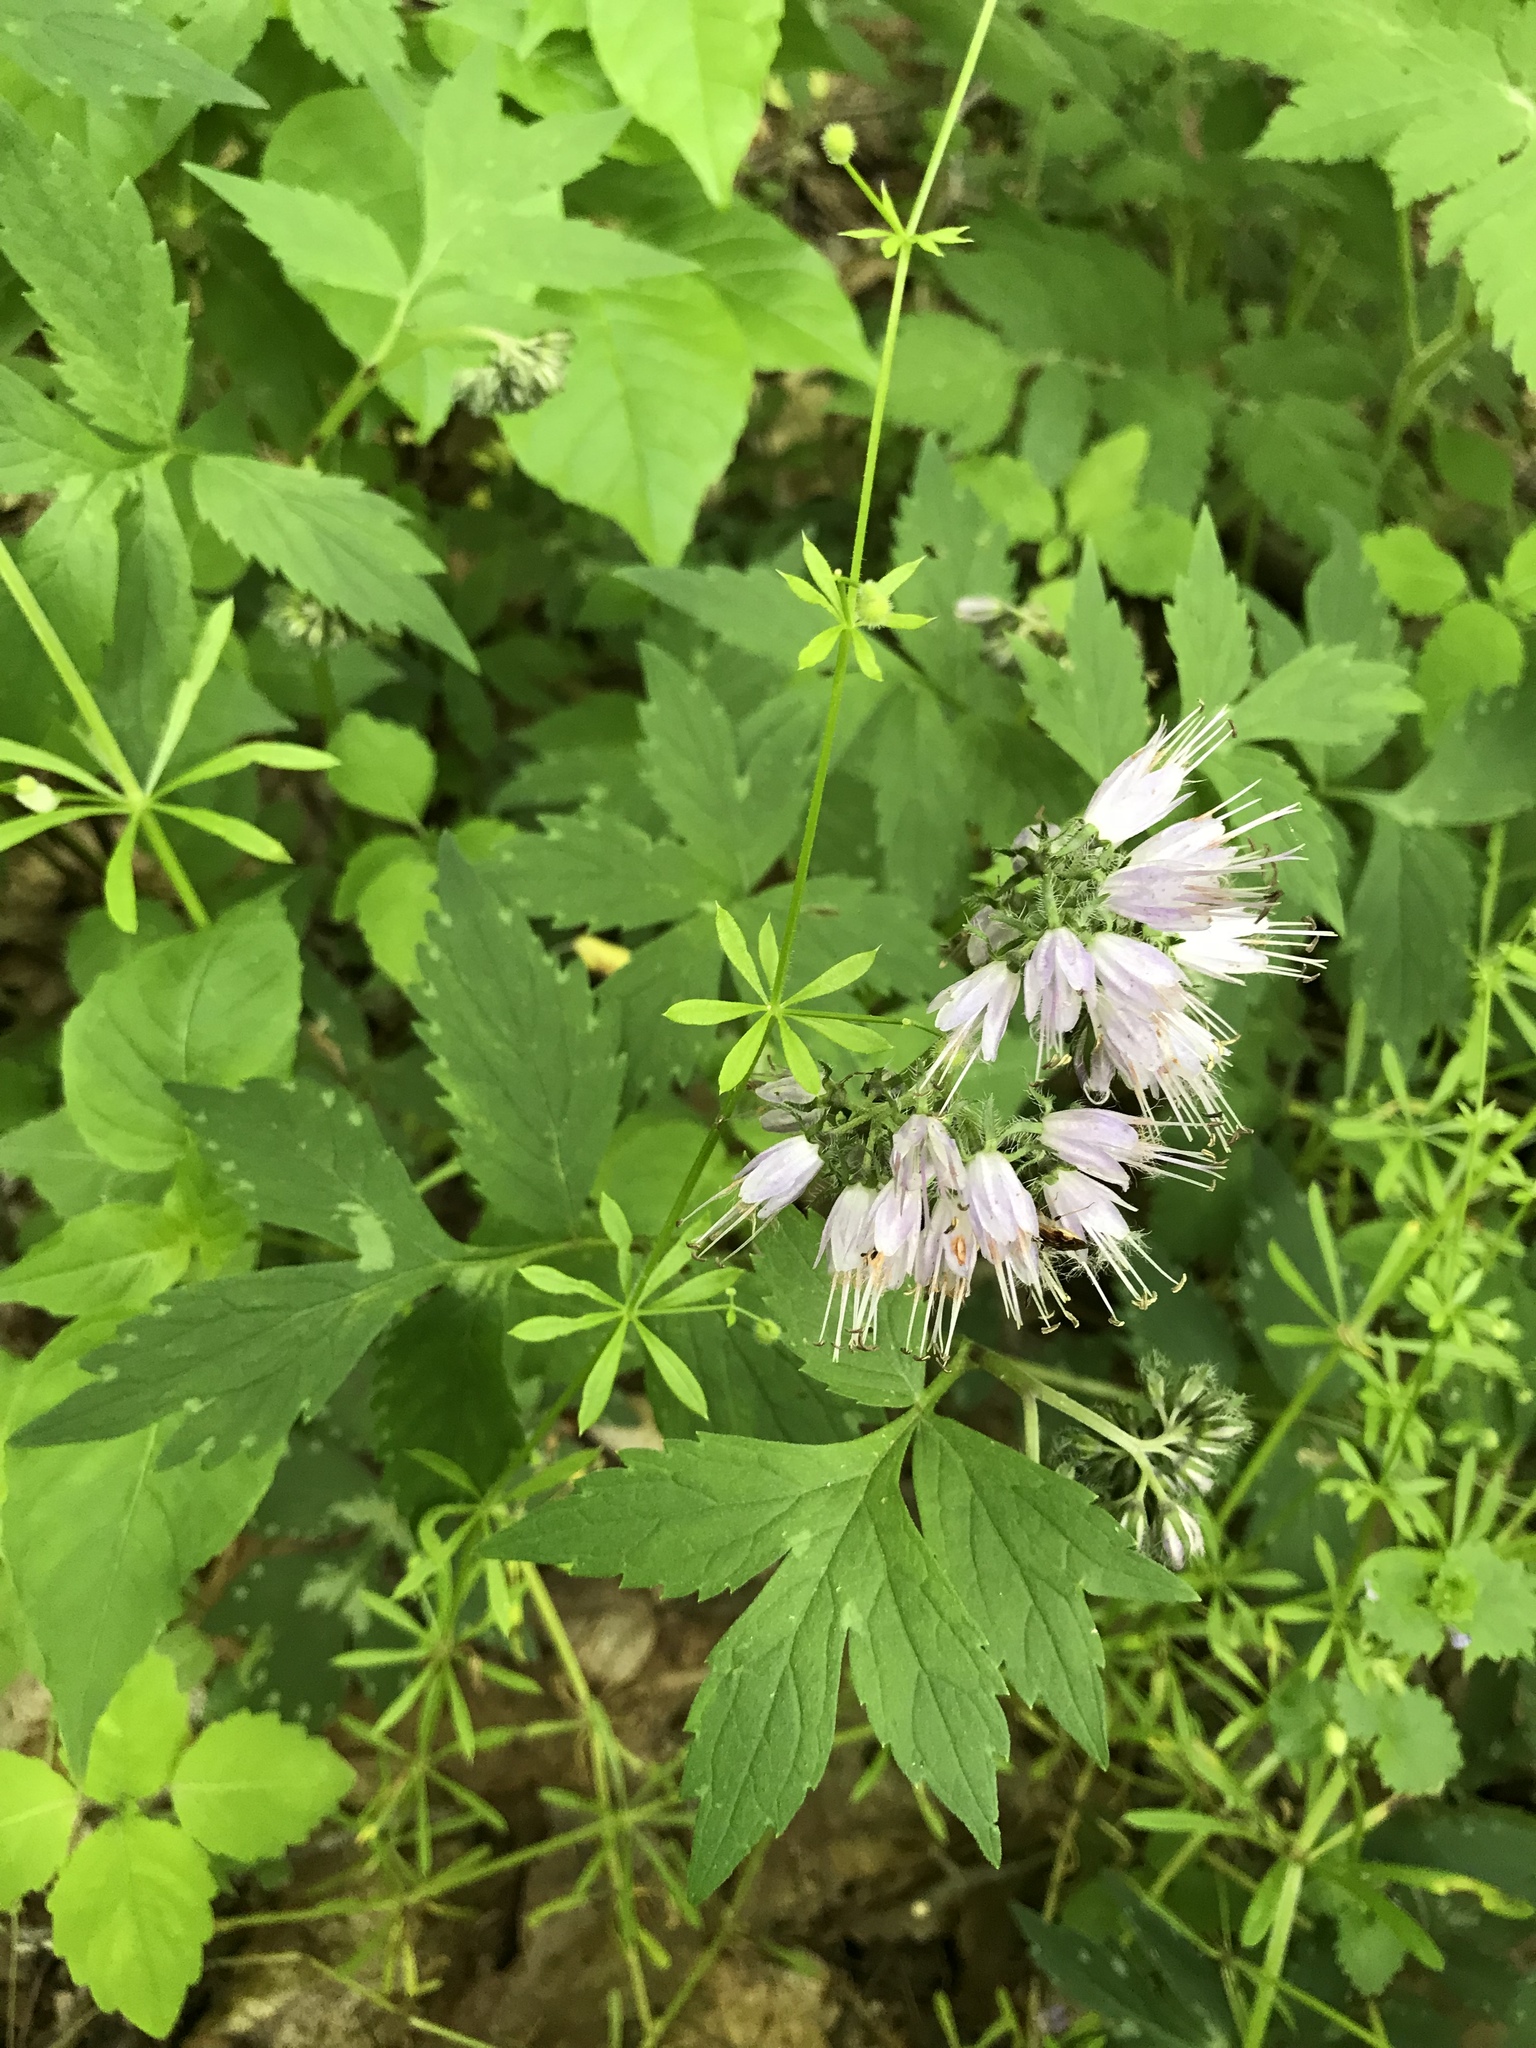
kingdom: Plantae
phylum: Tracheophyta
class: Magnoliopsida
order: Boraginales
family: Hydrophyllaceae
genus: Hydrophyllum
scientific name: Hydrophyllum virginianum
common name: Virginia waterleaf
